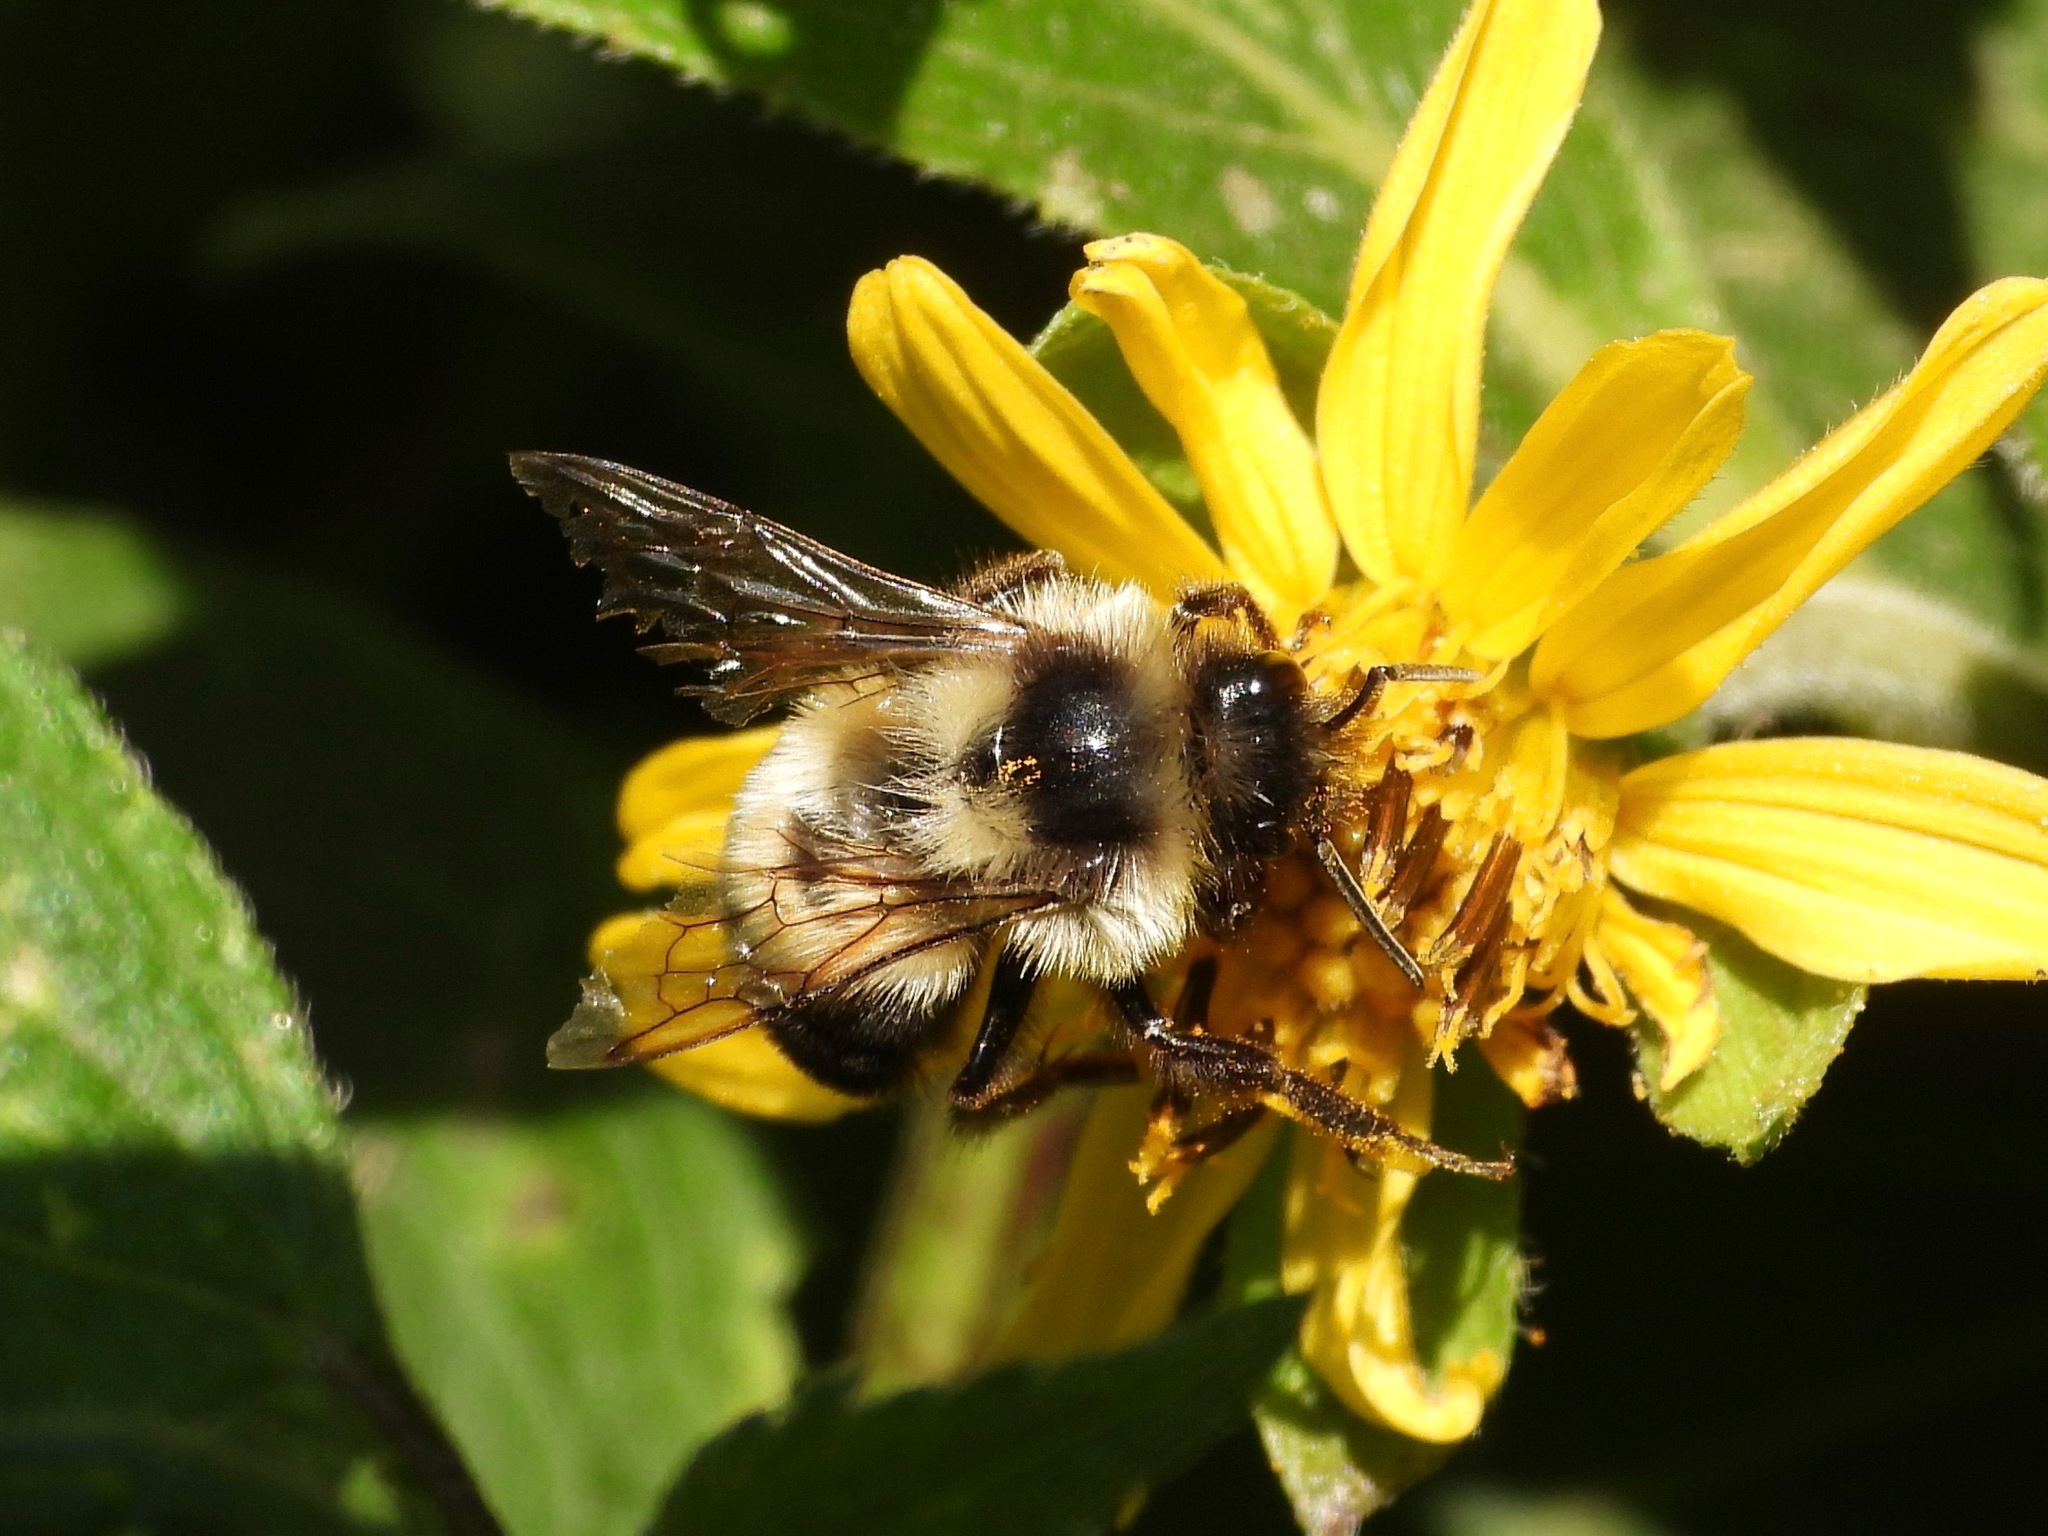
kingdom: Animalia
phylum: Arthropoda
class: Insecta
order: Hymenoptera
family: Apidae
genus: Bombus
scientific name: Bombus wilmattae
